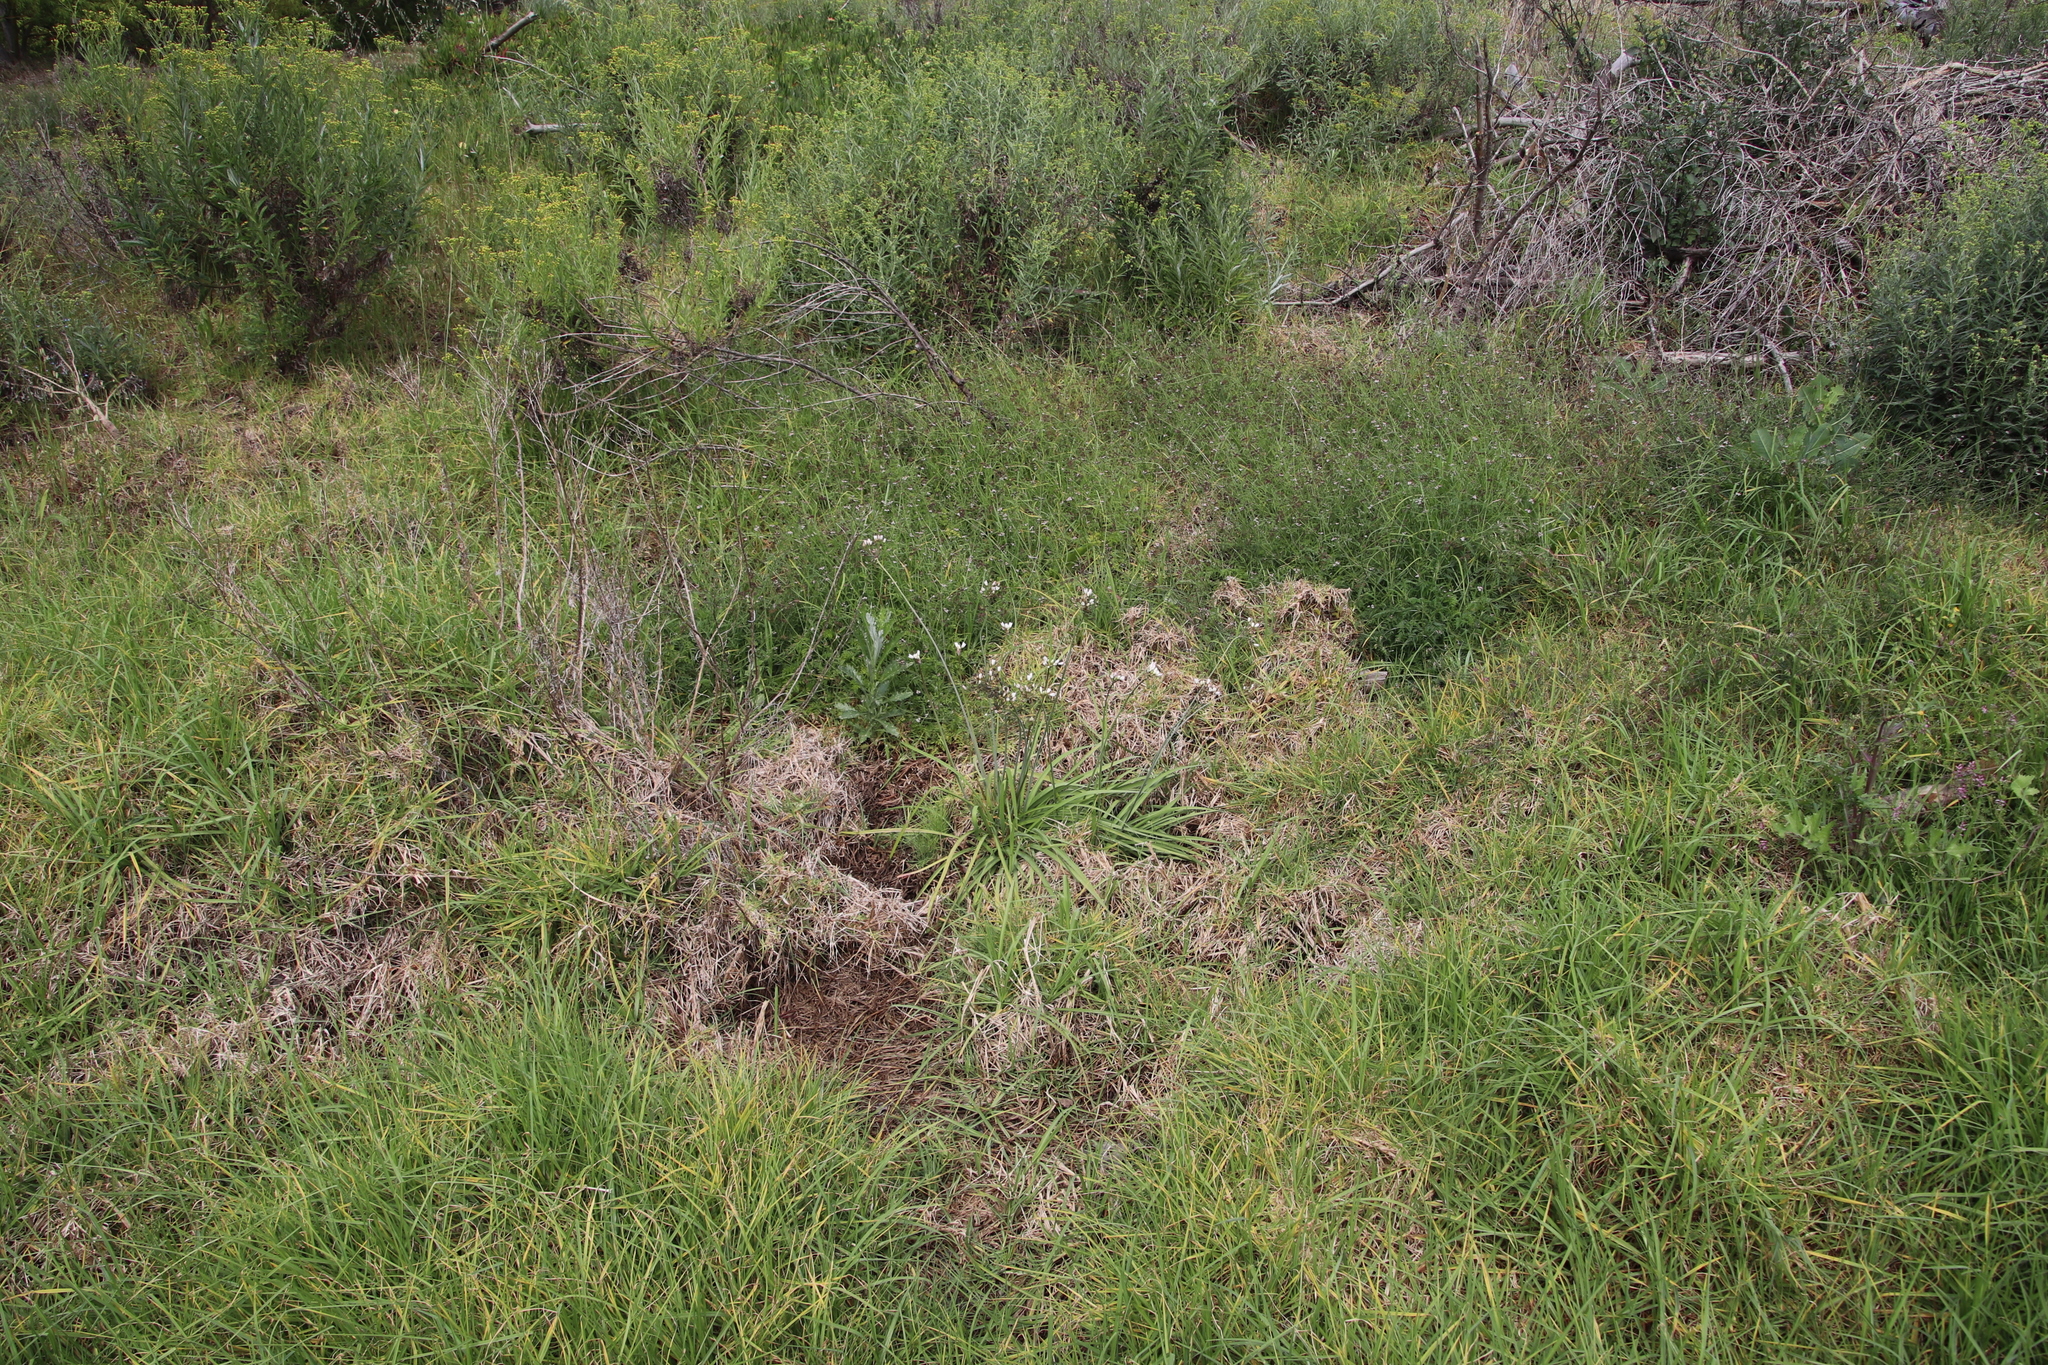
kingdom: Plantae
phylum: Tracheophyta
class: Liliopsida
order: Asparagales
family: Amaryllidaceae
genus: Nothoscordum
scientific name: Nothoscordum gracile
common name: Slender false garlic
